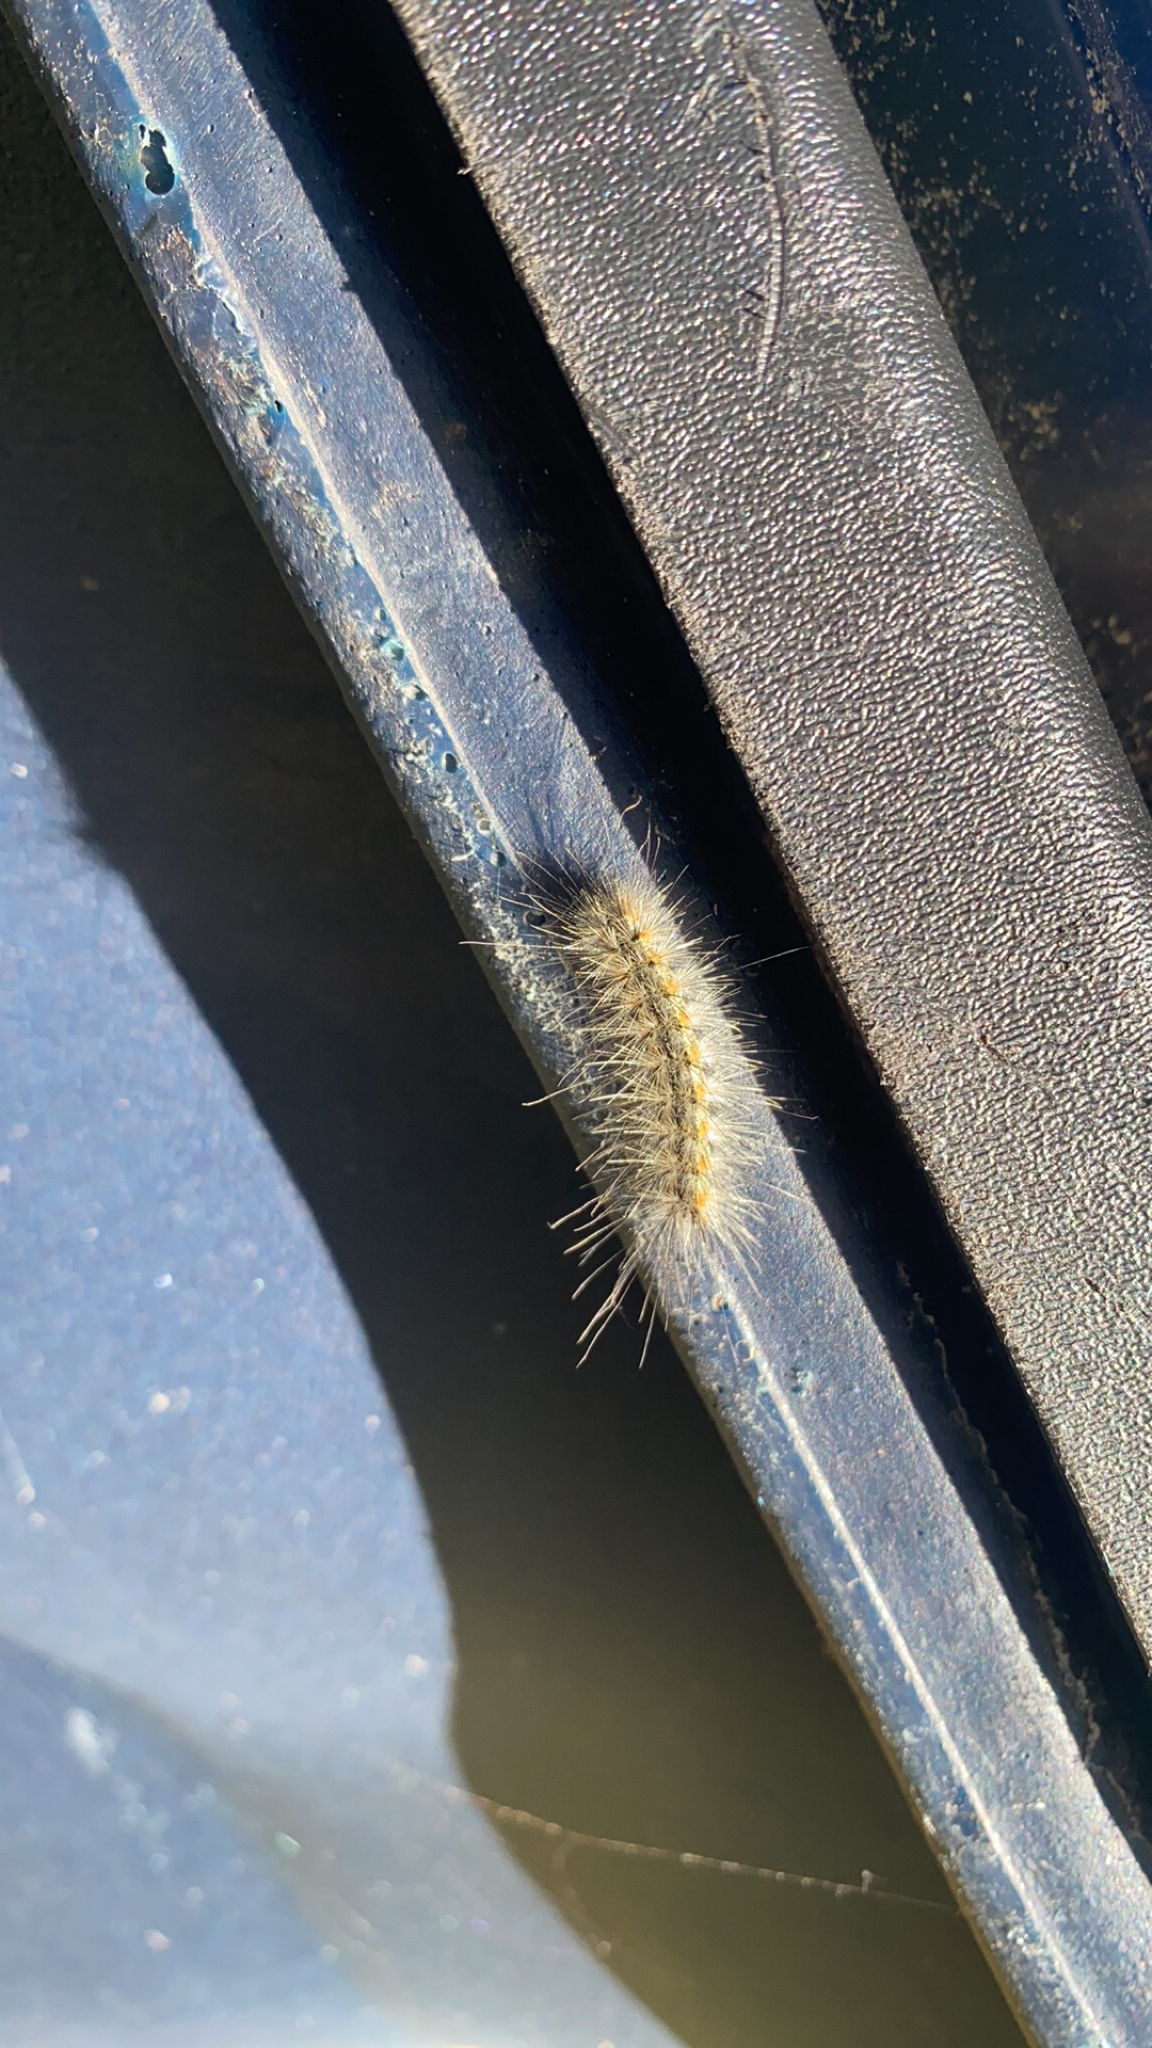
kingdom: Animalia
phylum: Arthropoda
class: Insecta
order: Lepidoptera
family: Erebidae
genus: Hyphantria
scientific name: Hyphantria cunea
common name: American white moth
